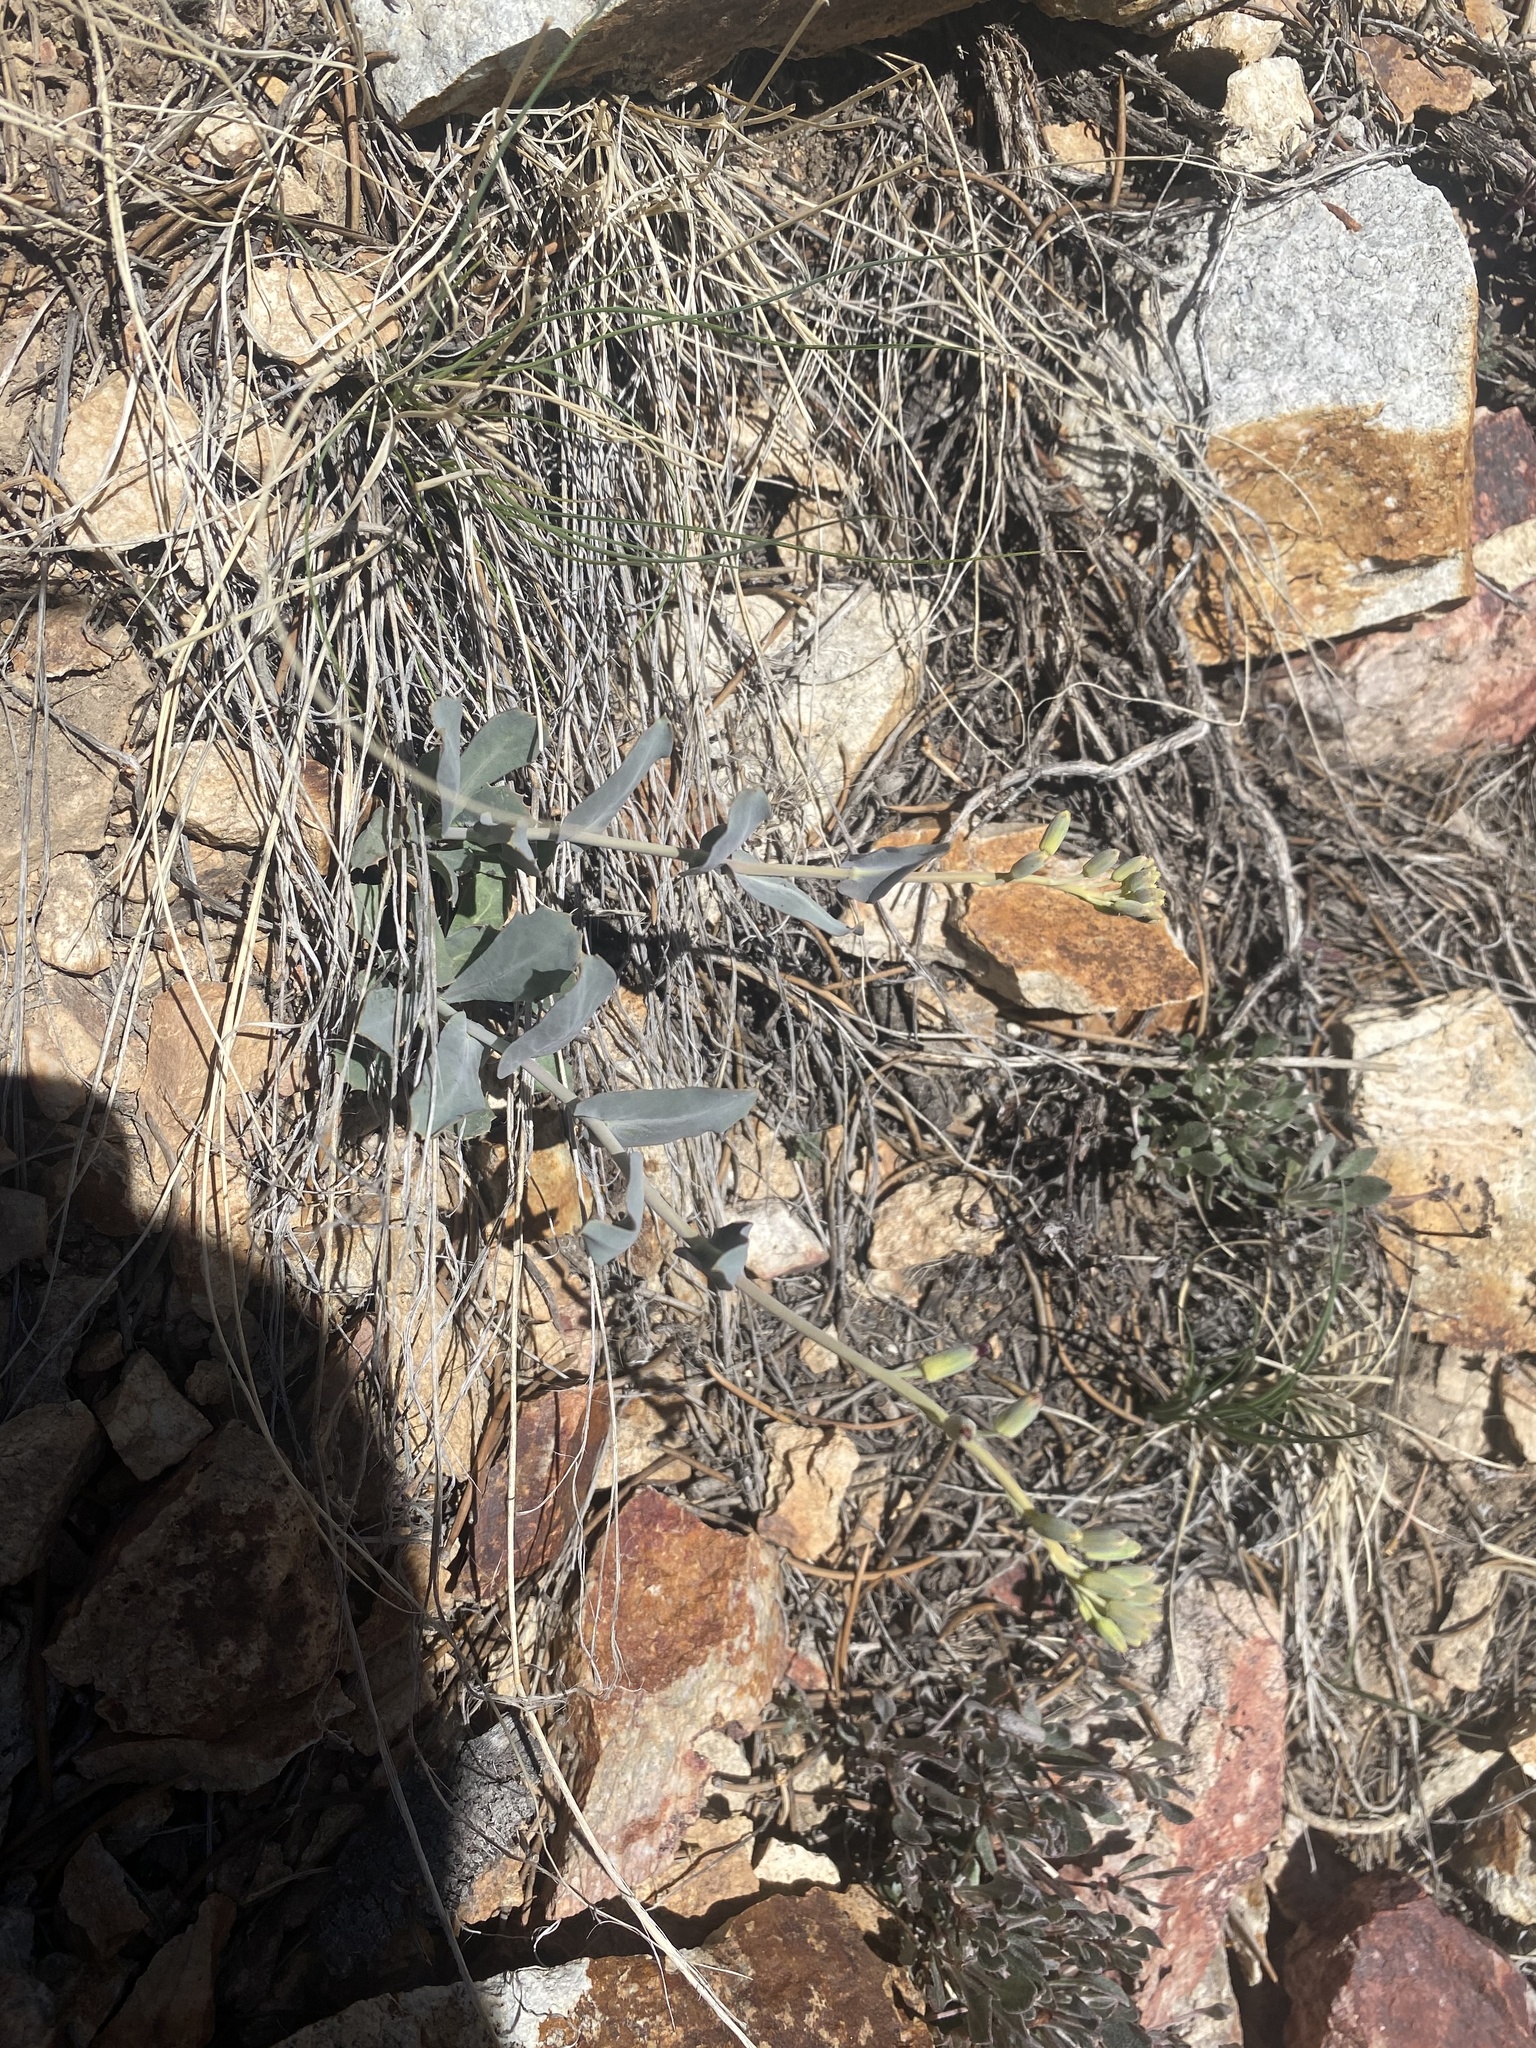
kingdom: Plantae
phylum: Tracheophyta
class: Magnoliopsida
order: Brassicales
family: Brassicaceae
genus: Streptanthus
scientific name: Streptanthus cordatus
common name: Heart-leaf jewel-flower
